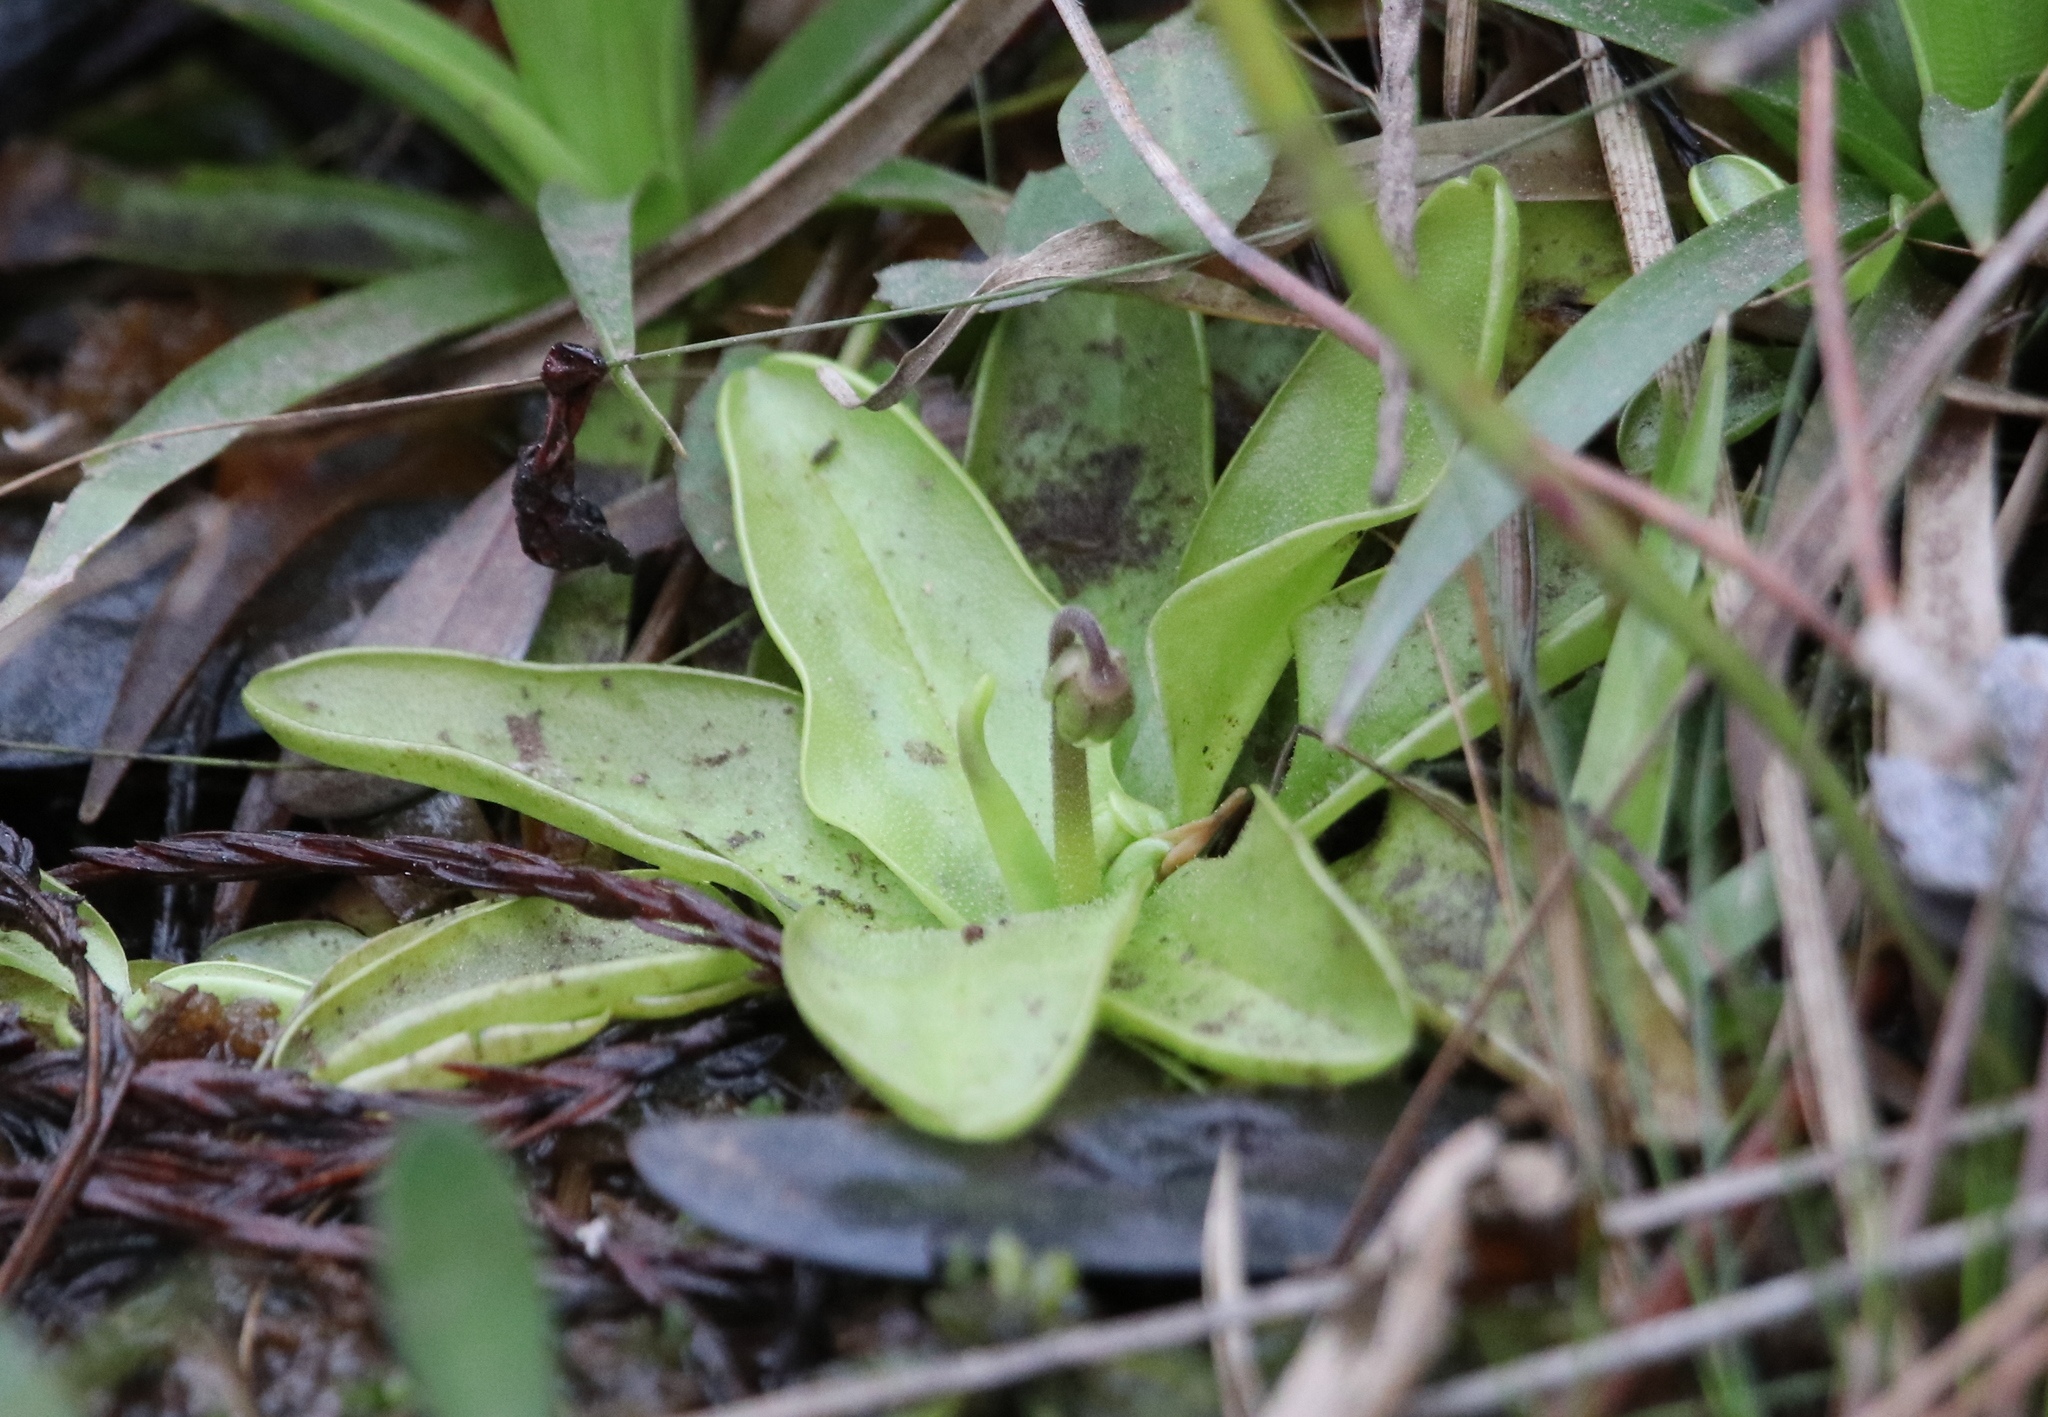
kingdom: Plantae
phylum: Tracheophyta
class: Magnoliopsida
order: Lamiales
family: Lentibulariaceae
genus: Pinguicula
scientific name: Pinguicula primuliflora
